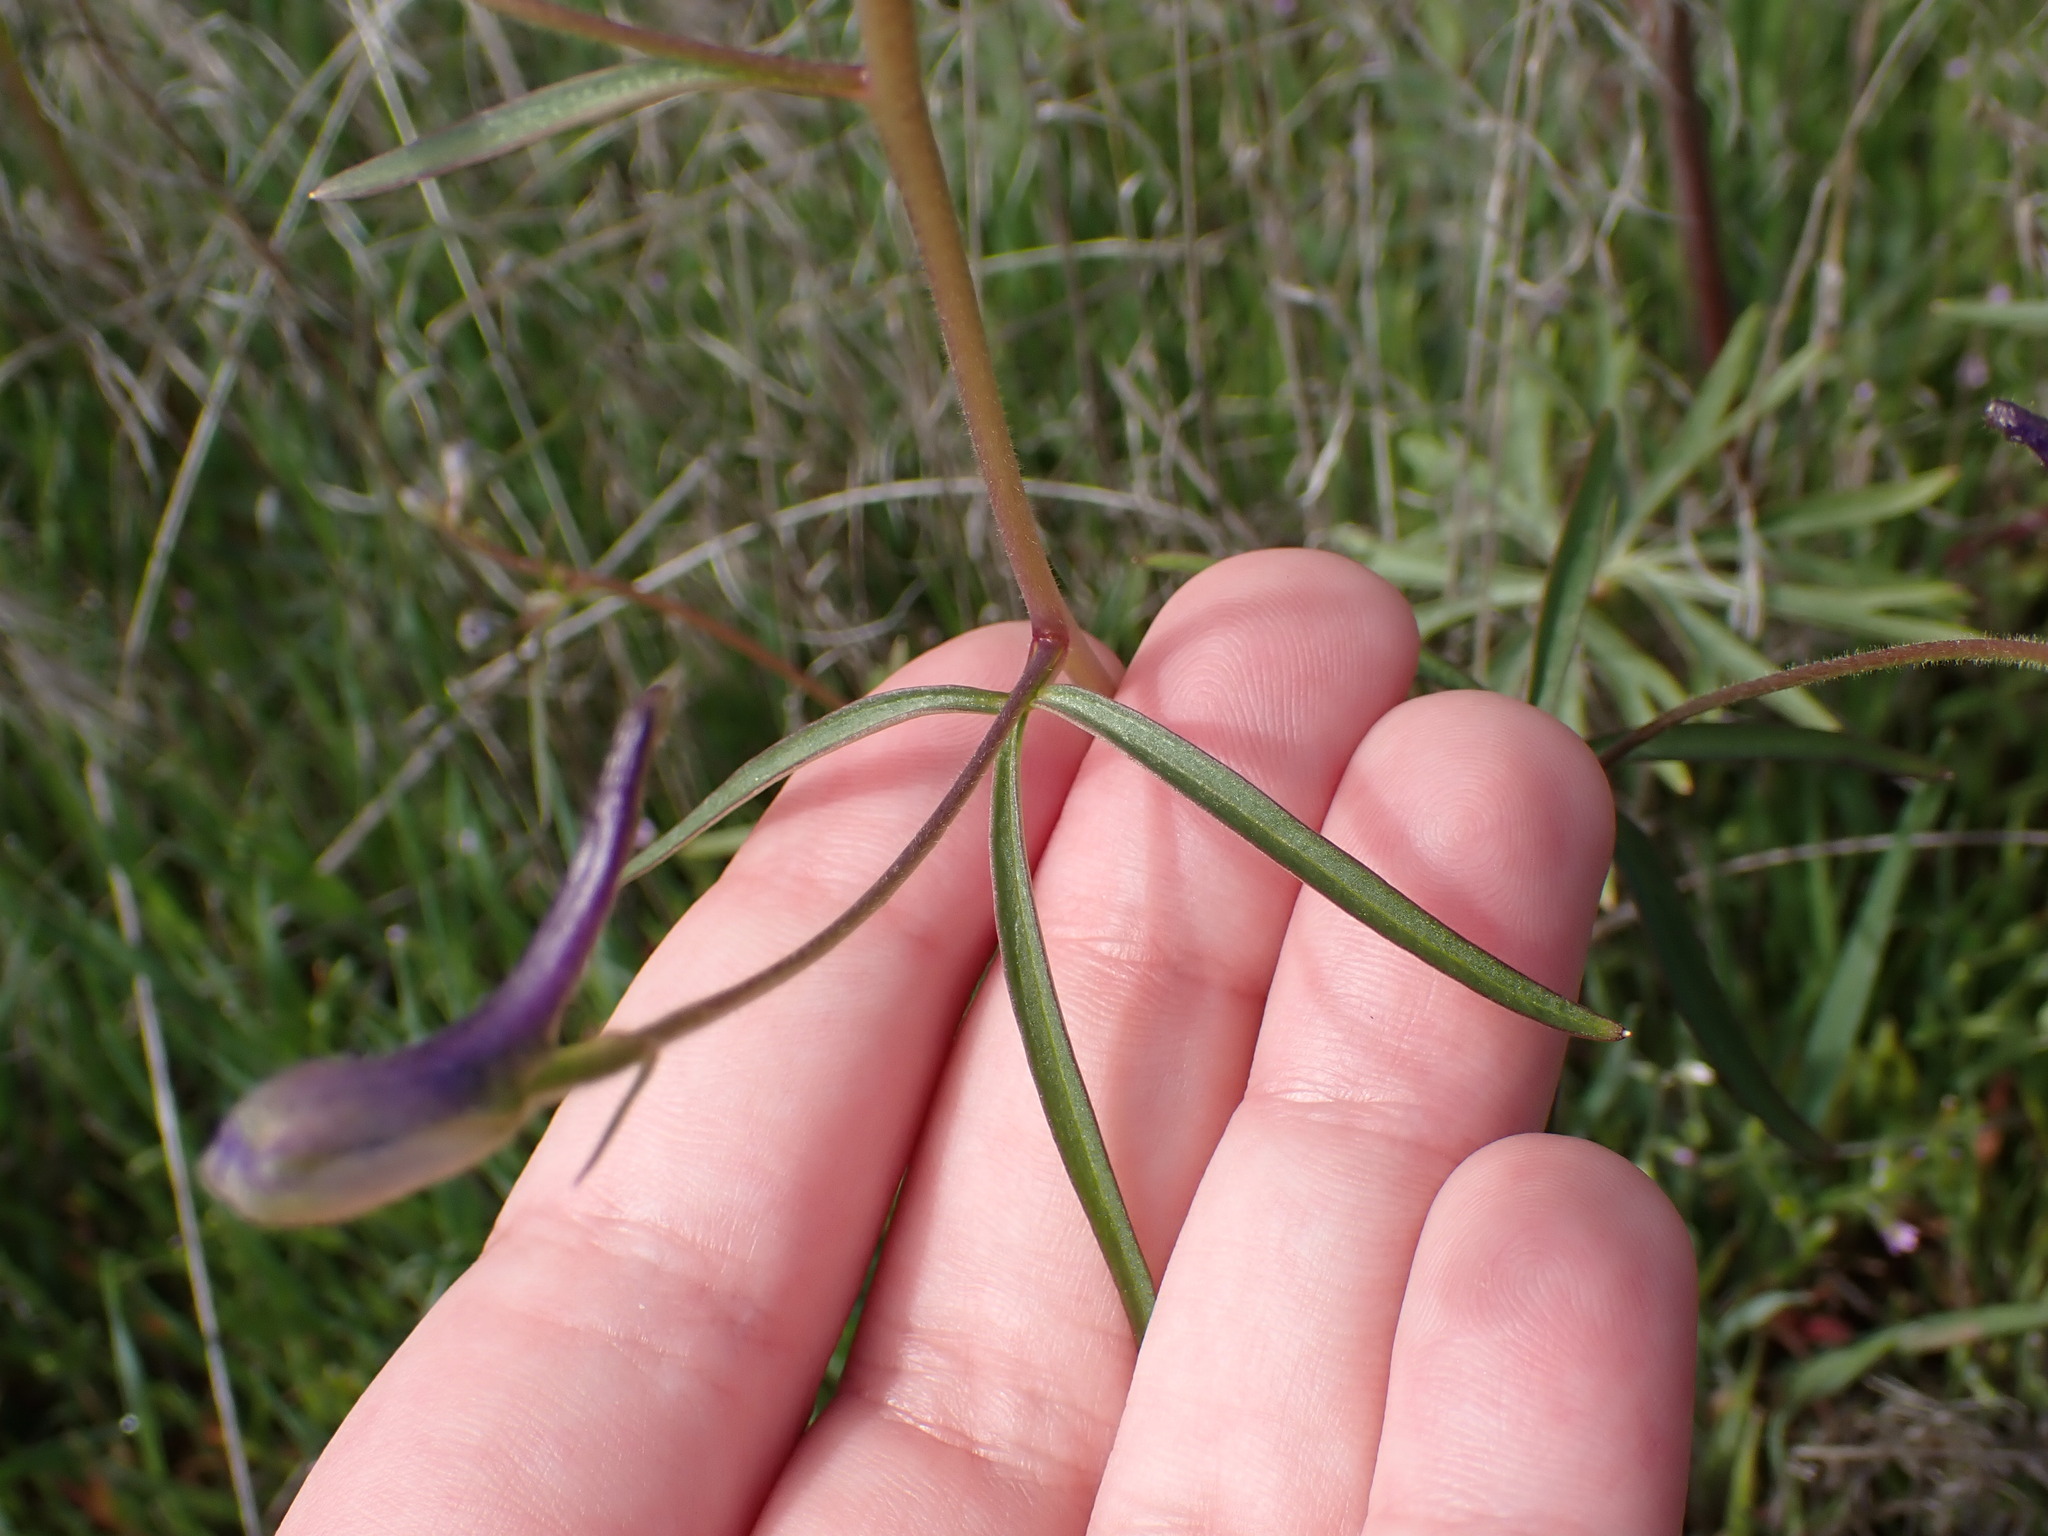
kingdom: Plantae
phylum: Tracheophyta
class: Magnoliopsida
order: Ranunculales
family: Ranunculaceae
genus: Delphinium
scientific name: Delphinium nuttallianum
